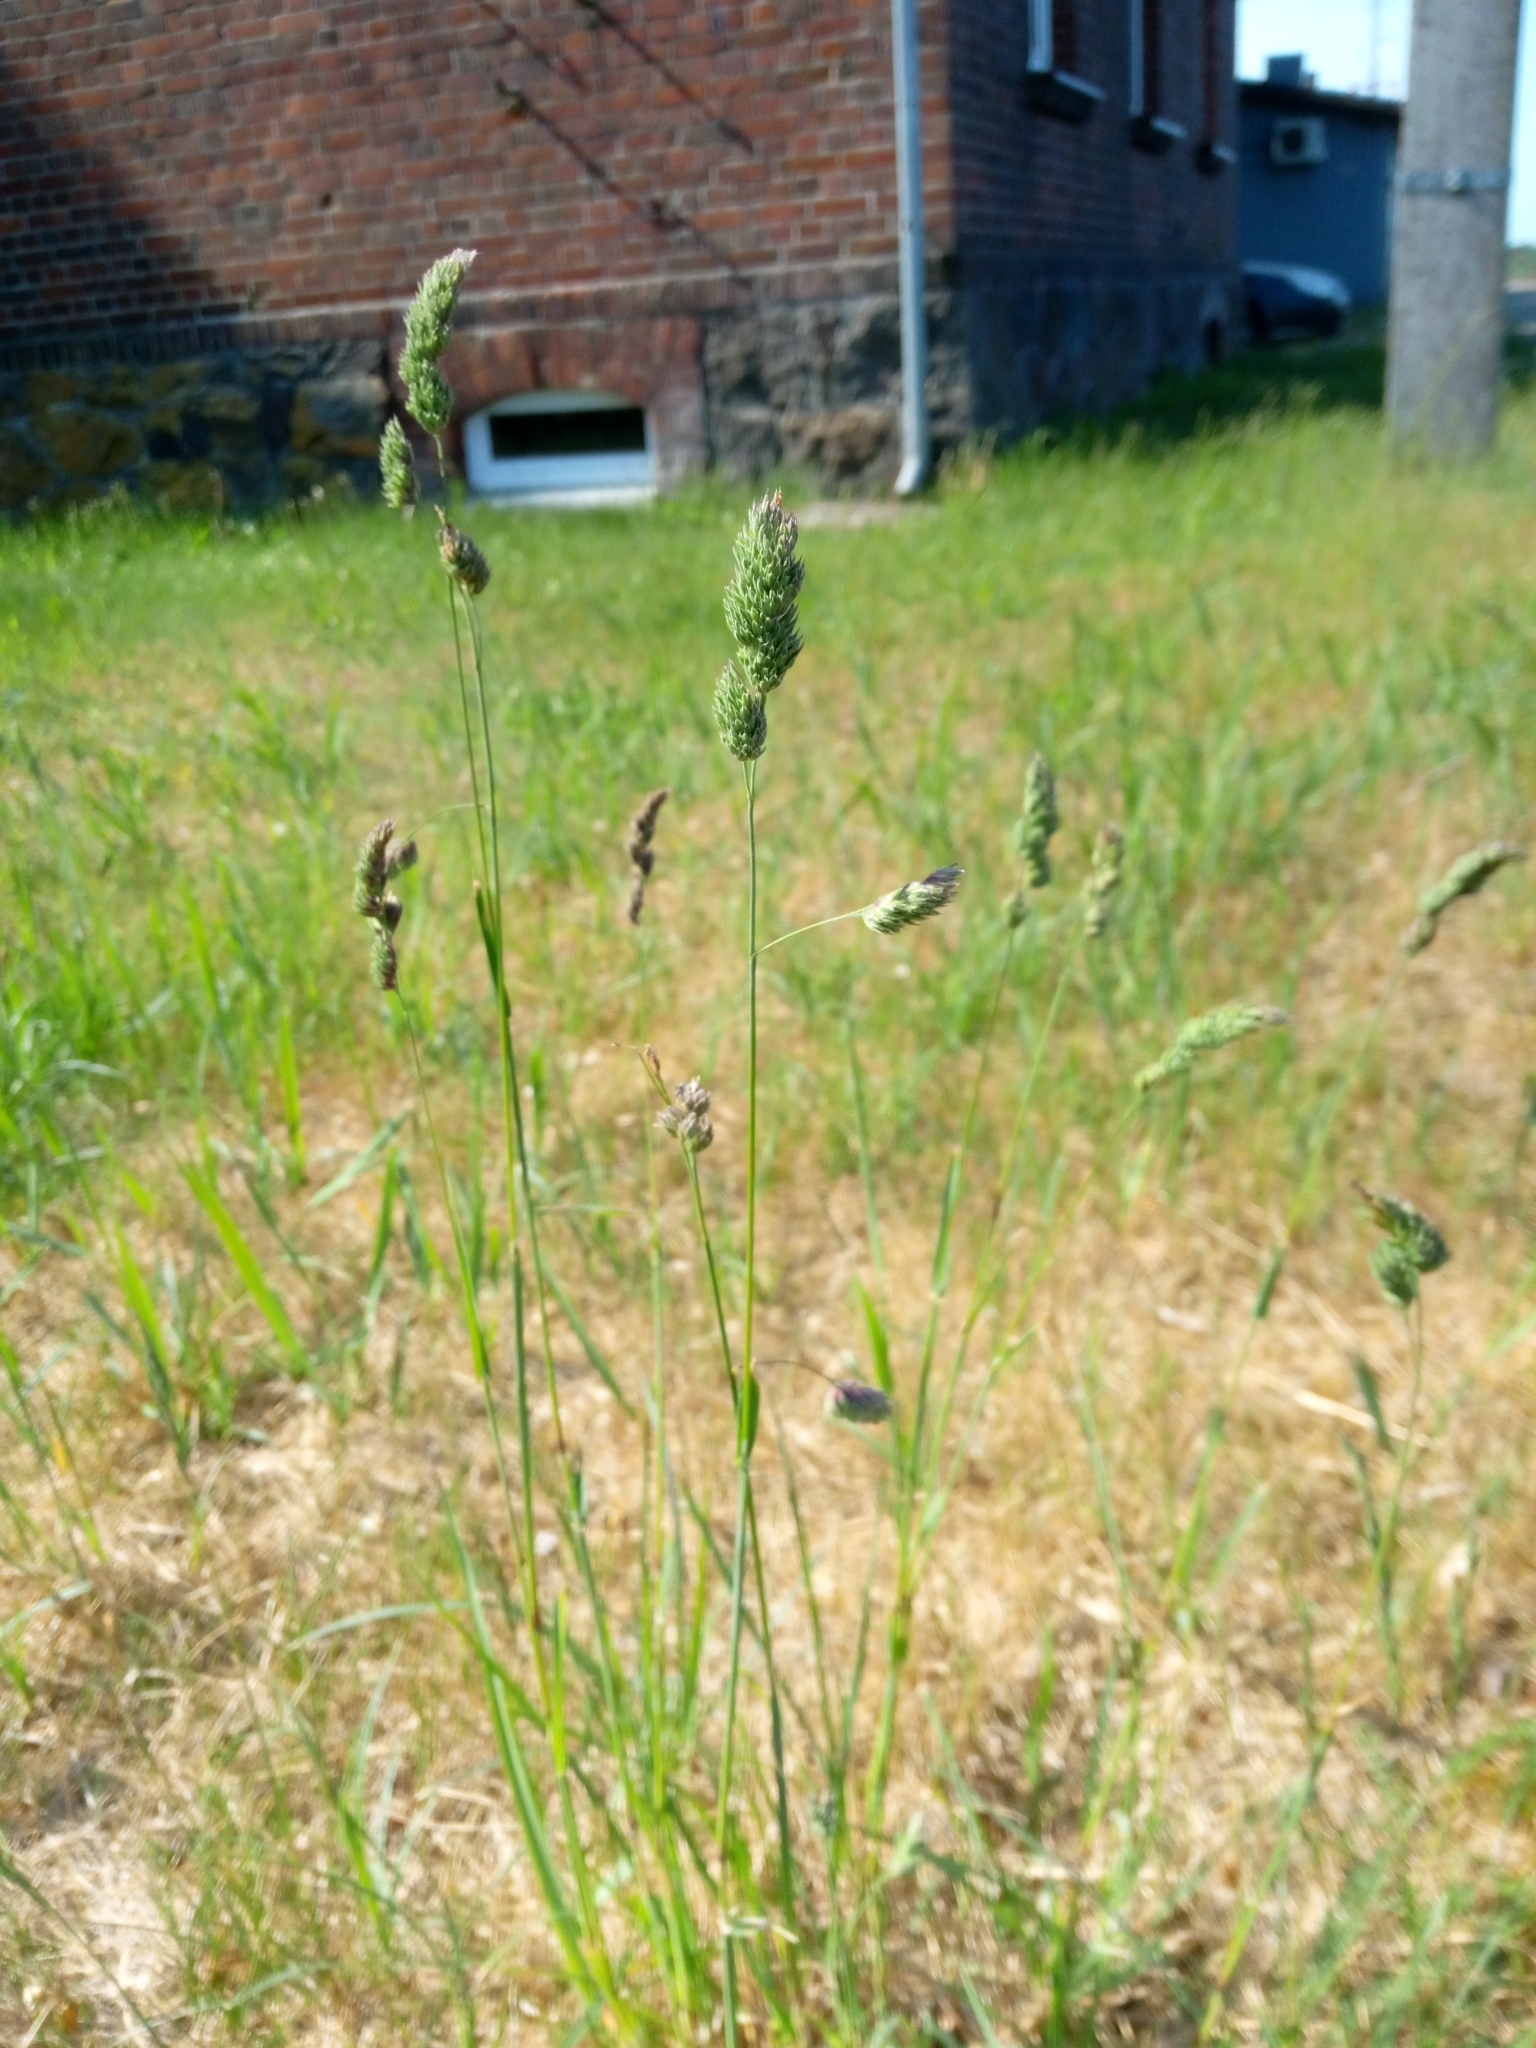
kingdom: Plantae
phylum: Tracheophyta
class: Liliopsida
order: Poales
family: Poaceae
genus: Dactylis
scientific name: Dactylis glomerata
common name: Orchardgrass
